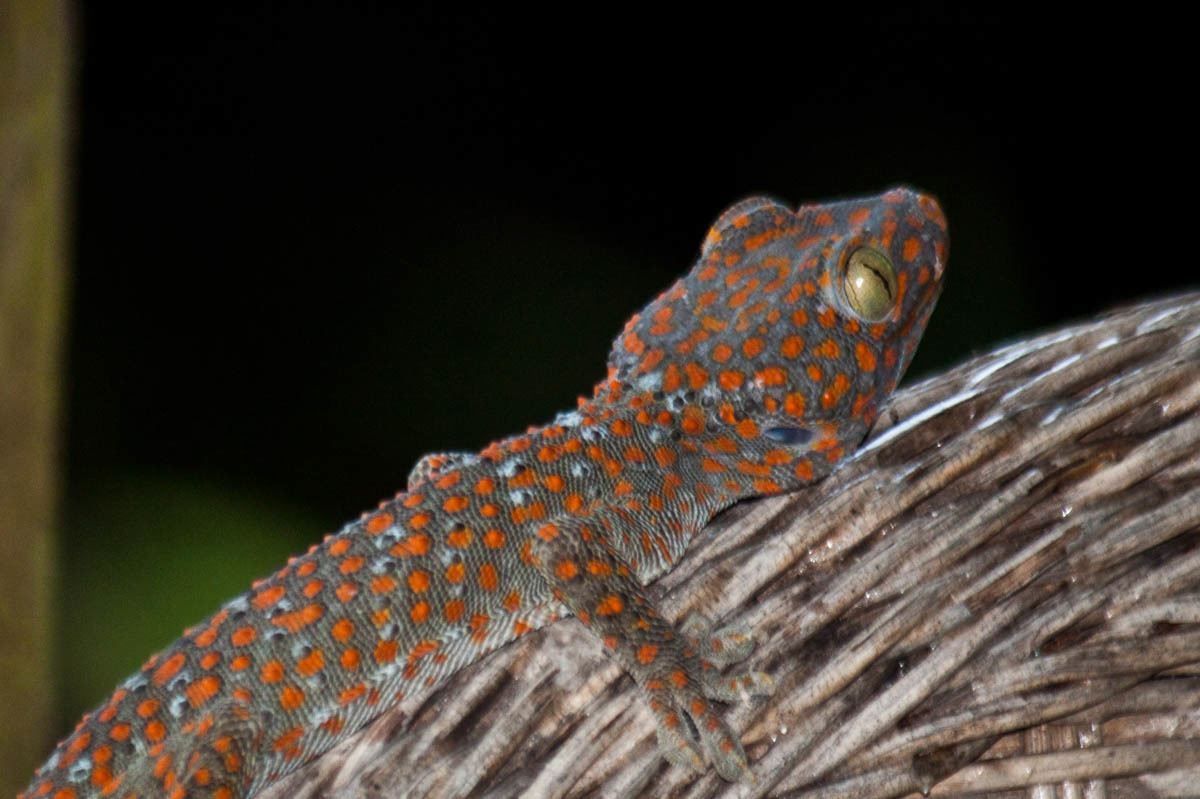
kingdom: Animalia
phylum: Chordata
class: Squamata
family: Gekkonidae
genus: Gekko
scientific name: Gekko gecko
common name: Tokay gecko
